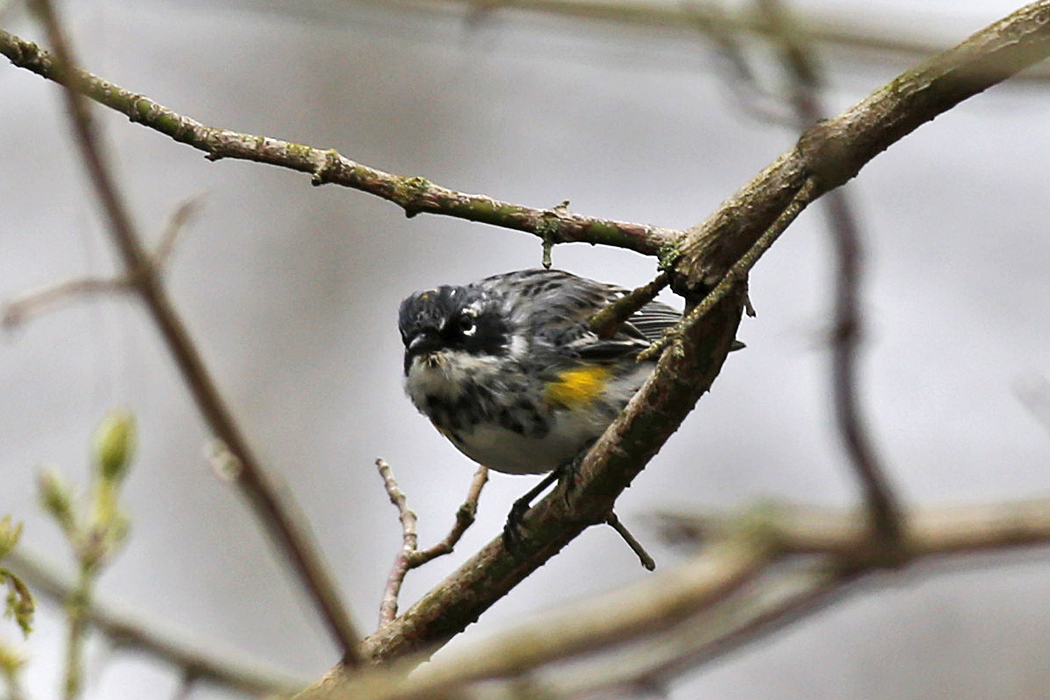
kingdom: Animalia
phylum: Chordata
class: Aves
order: Passeriformes
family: Parulidae
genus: Setophaga
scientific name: Setophaga coronata
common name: Myrtle warbler
